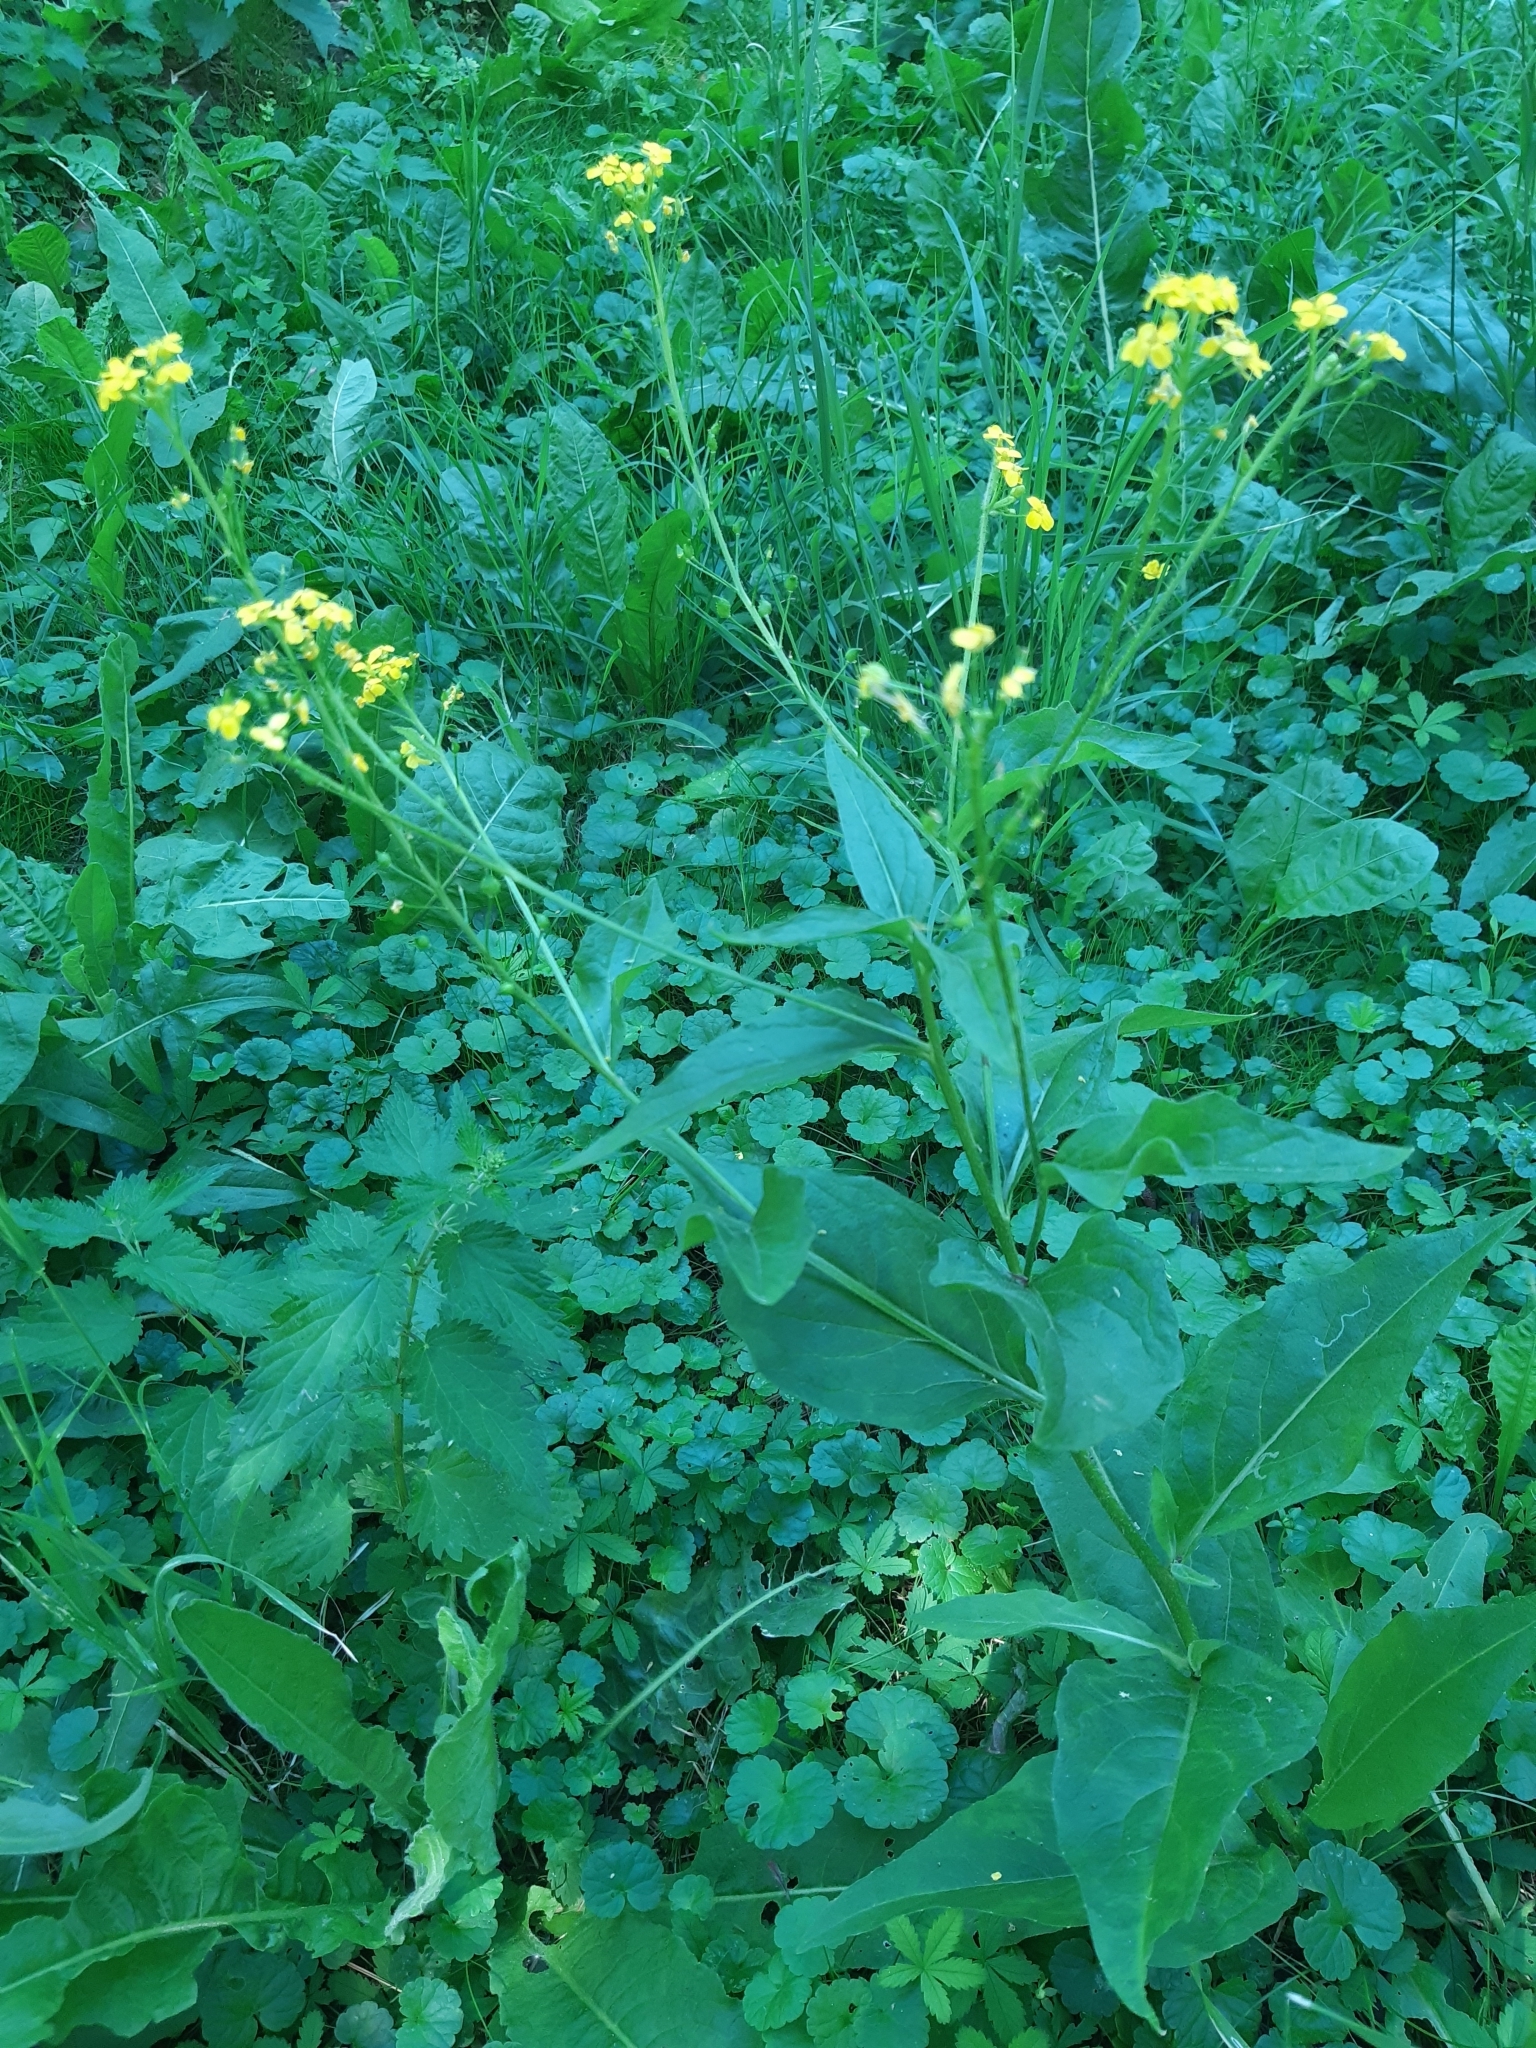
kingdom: Plantae
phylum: Tracheophyta
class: Magnoliopsida
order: Brassicales
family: Brassicaceae
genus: Bunias
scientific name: Bunias orientalis
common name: Warty-cabbage
